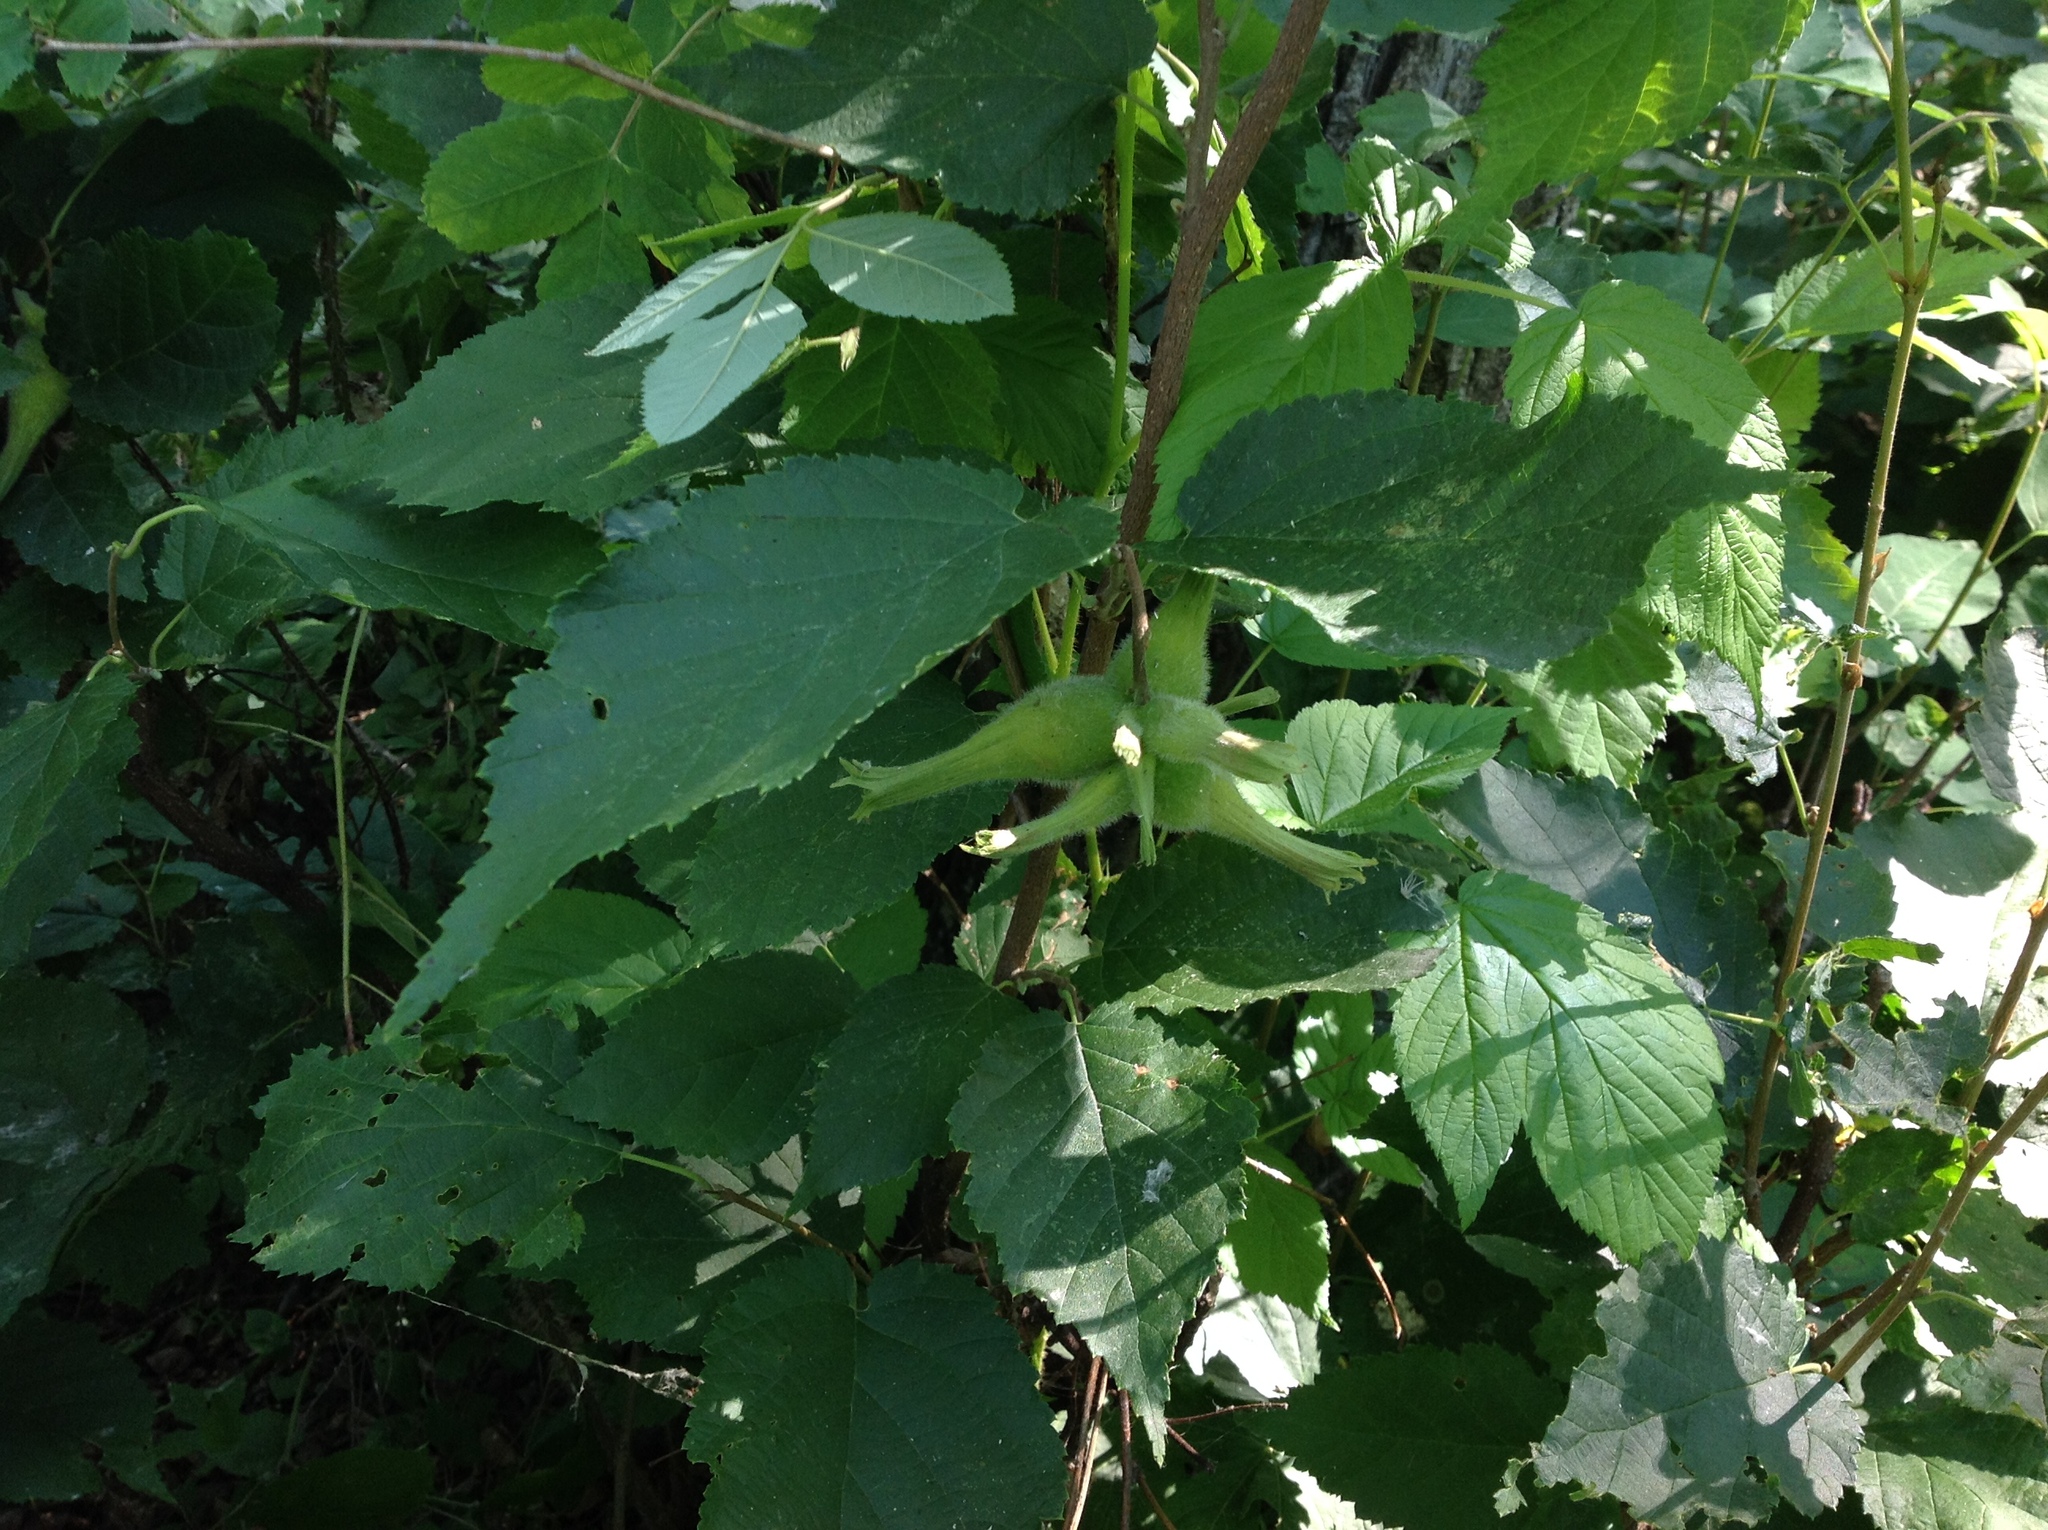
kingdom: Plantae
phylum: Tracheophyta
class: Magnoliopsida
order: Fagales
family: Betulaceae
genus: Corylus
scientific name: Corylus cornuta
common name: Beaked hazel
